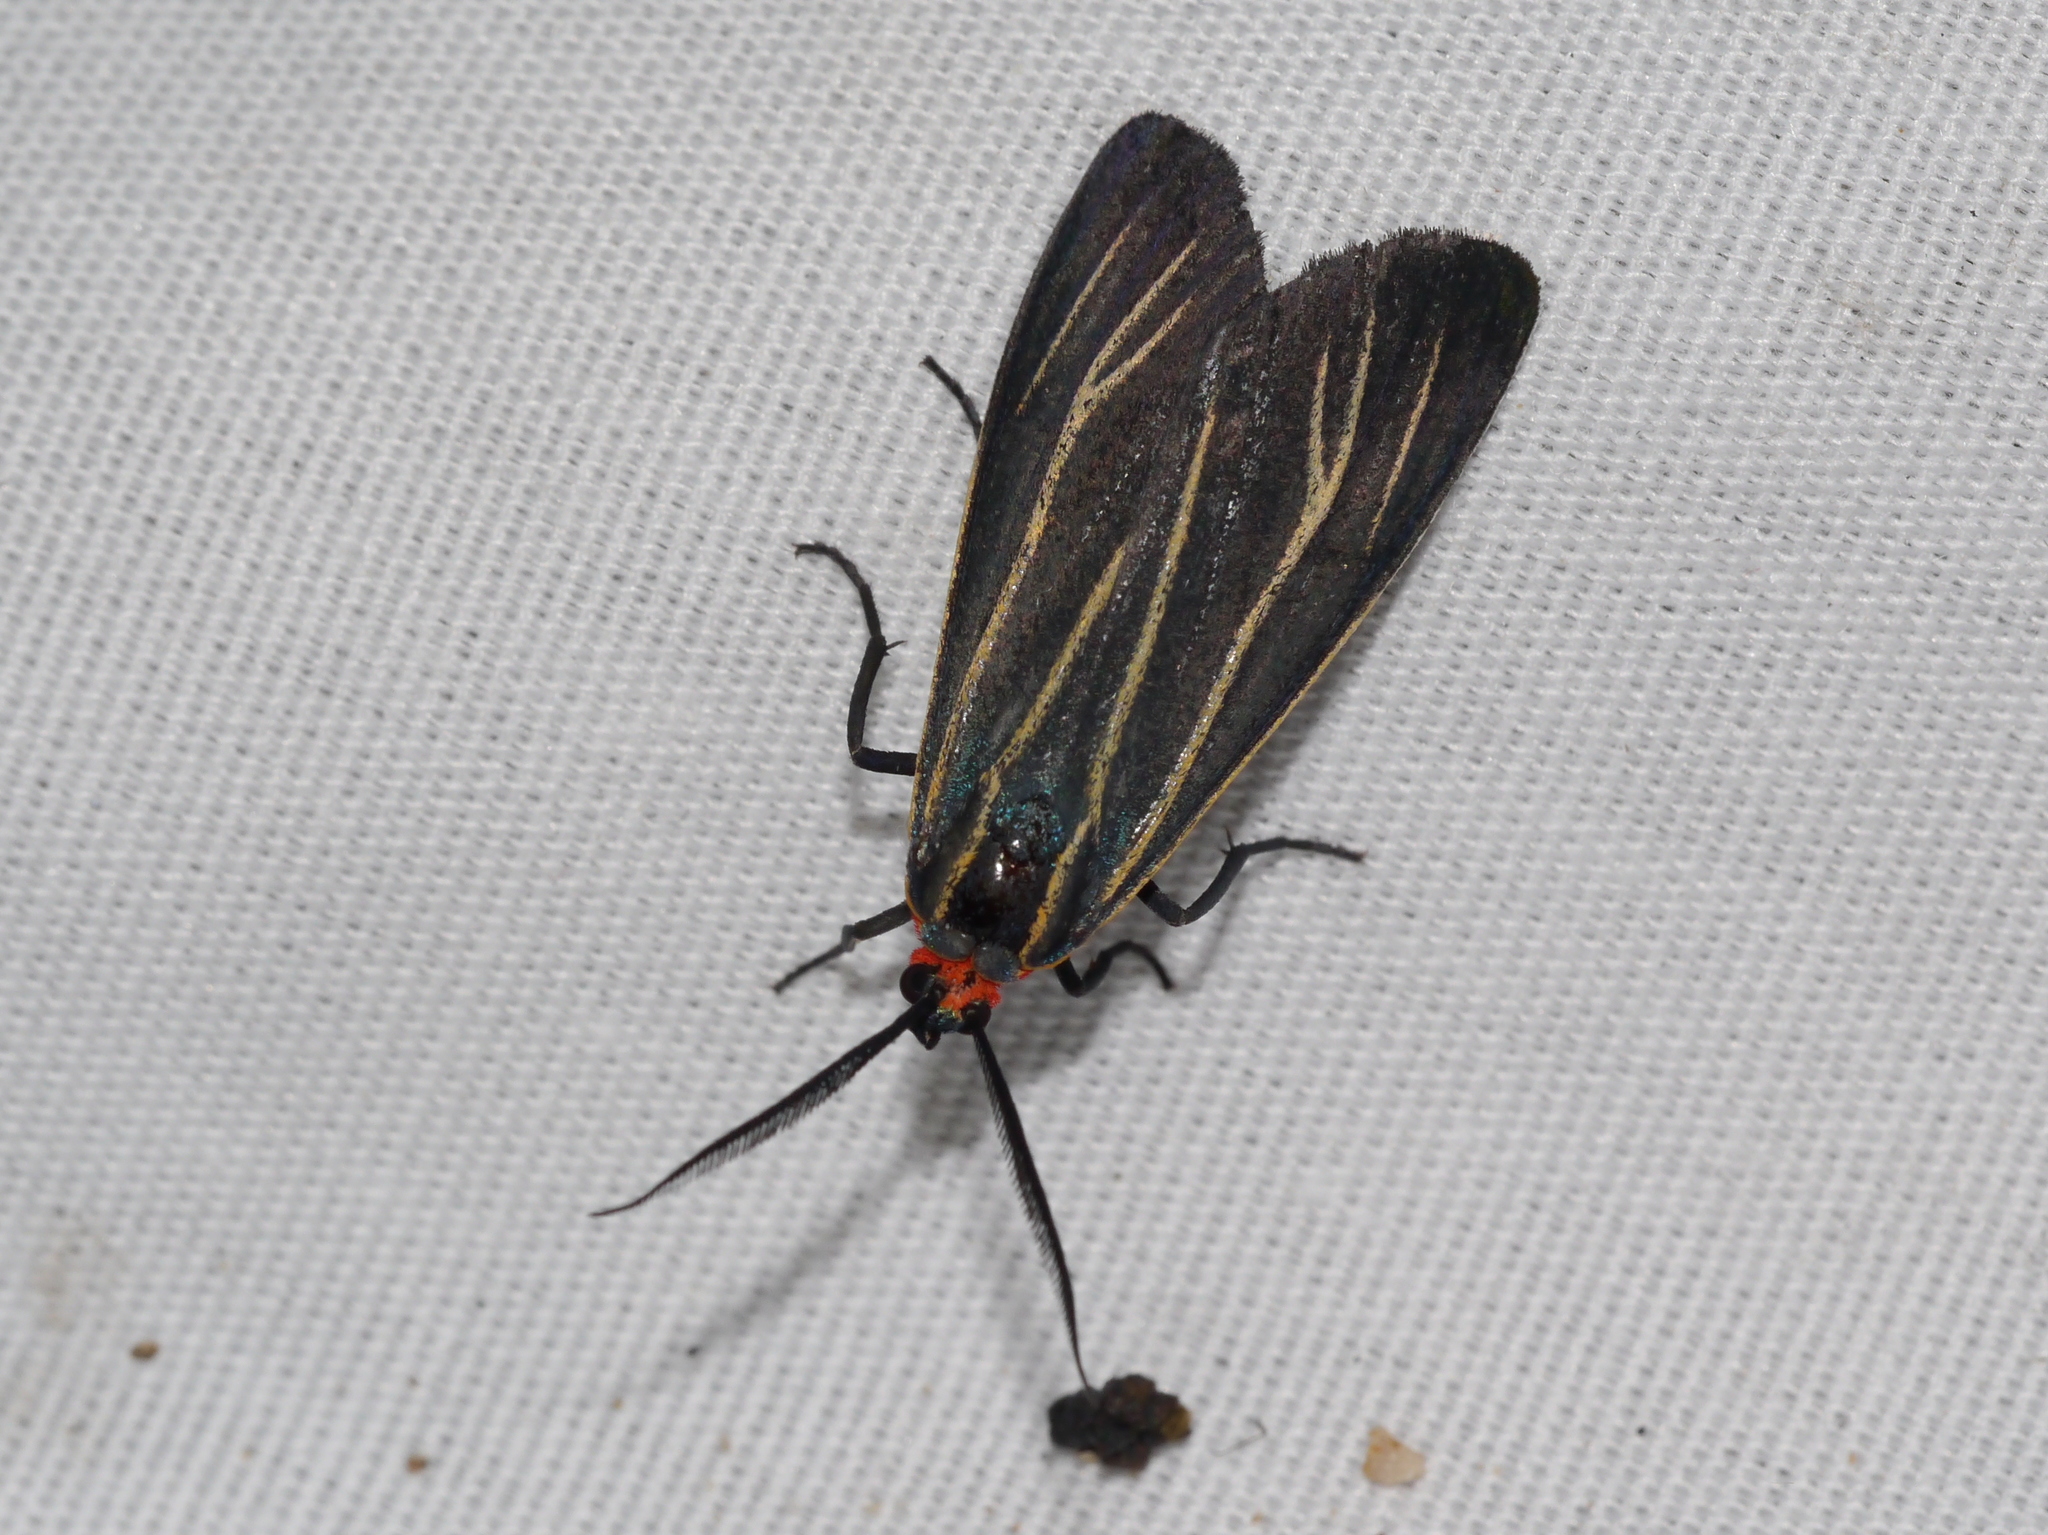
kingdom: Animalia
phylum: Arthropoda
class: Insecta
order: Lepidoptera
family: Erebidae
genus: Ctenucha
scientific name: Ctenucha venosa
